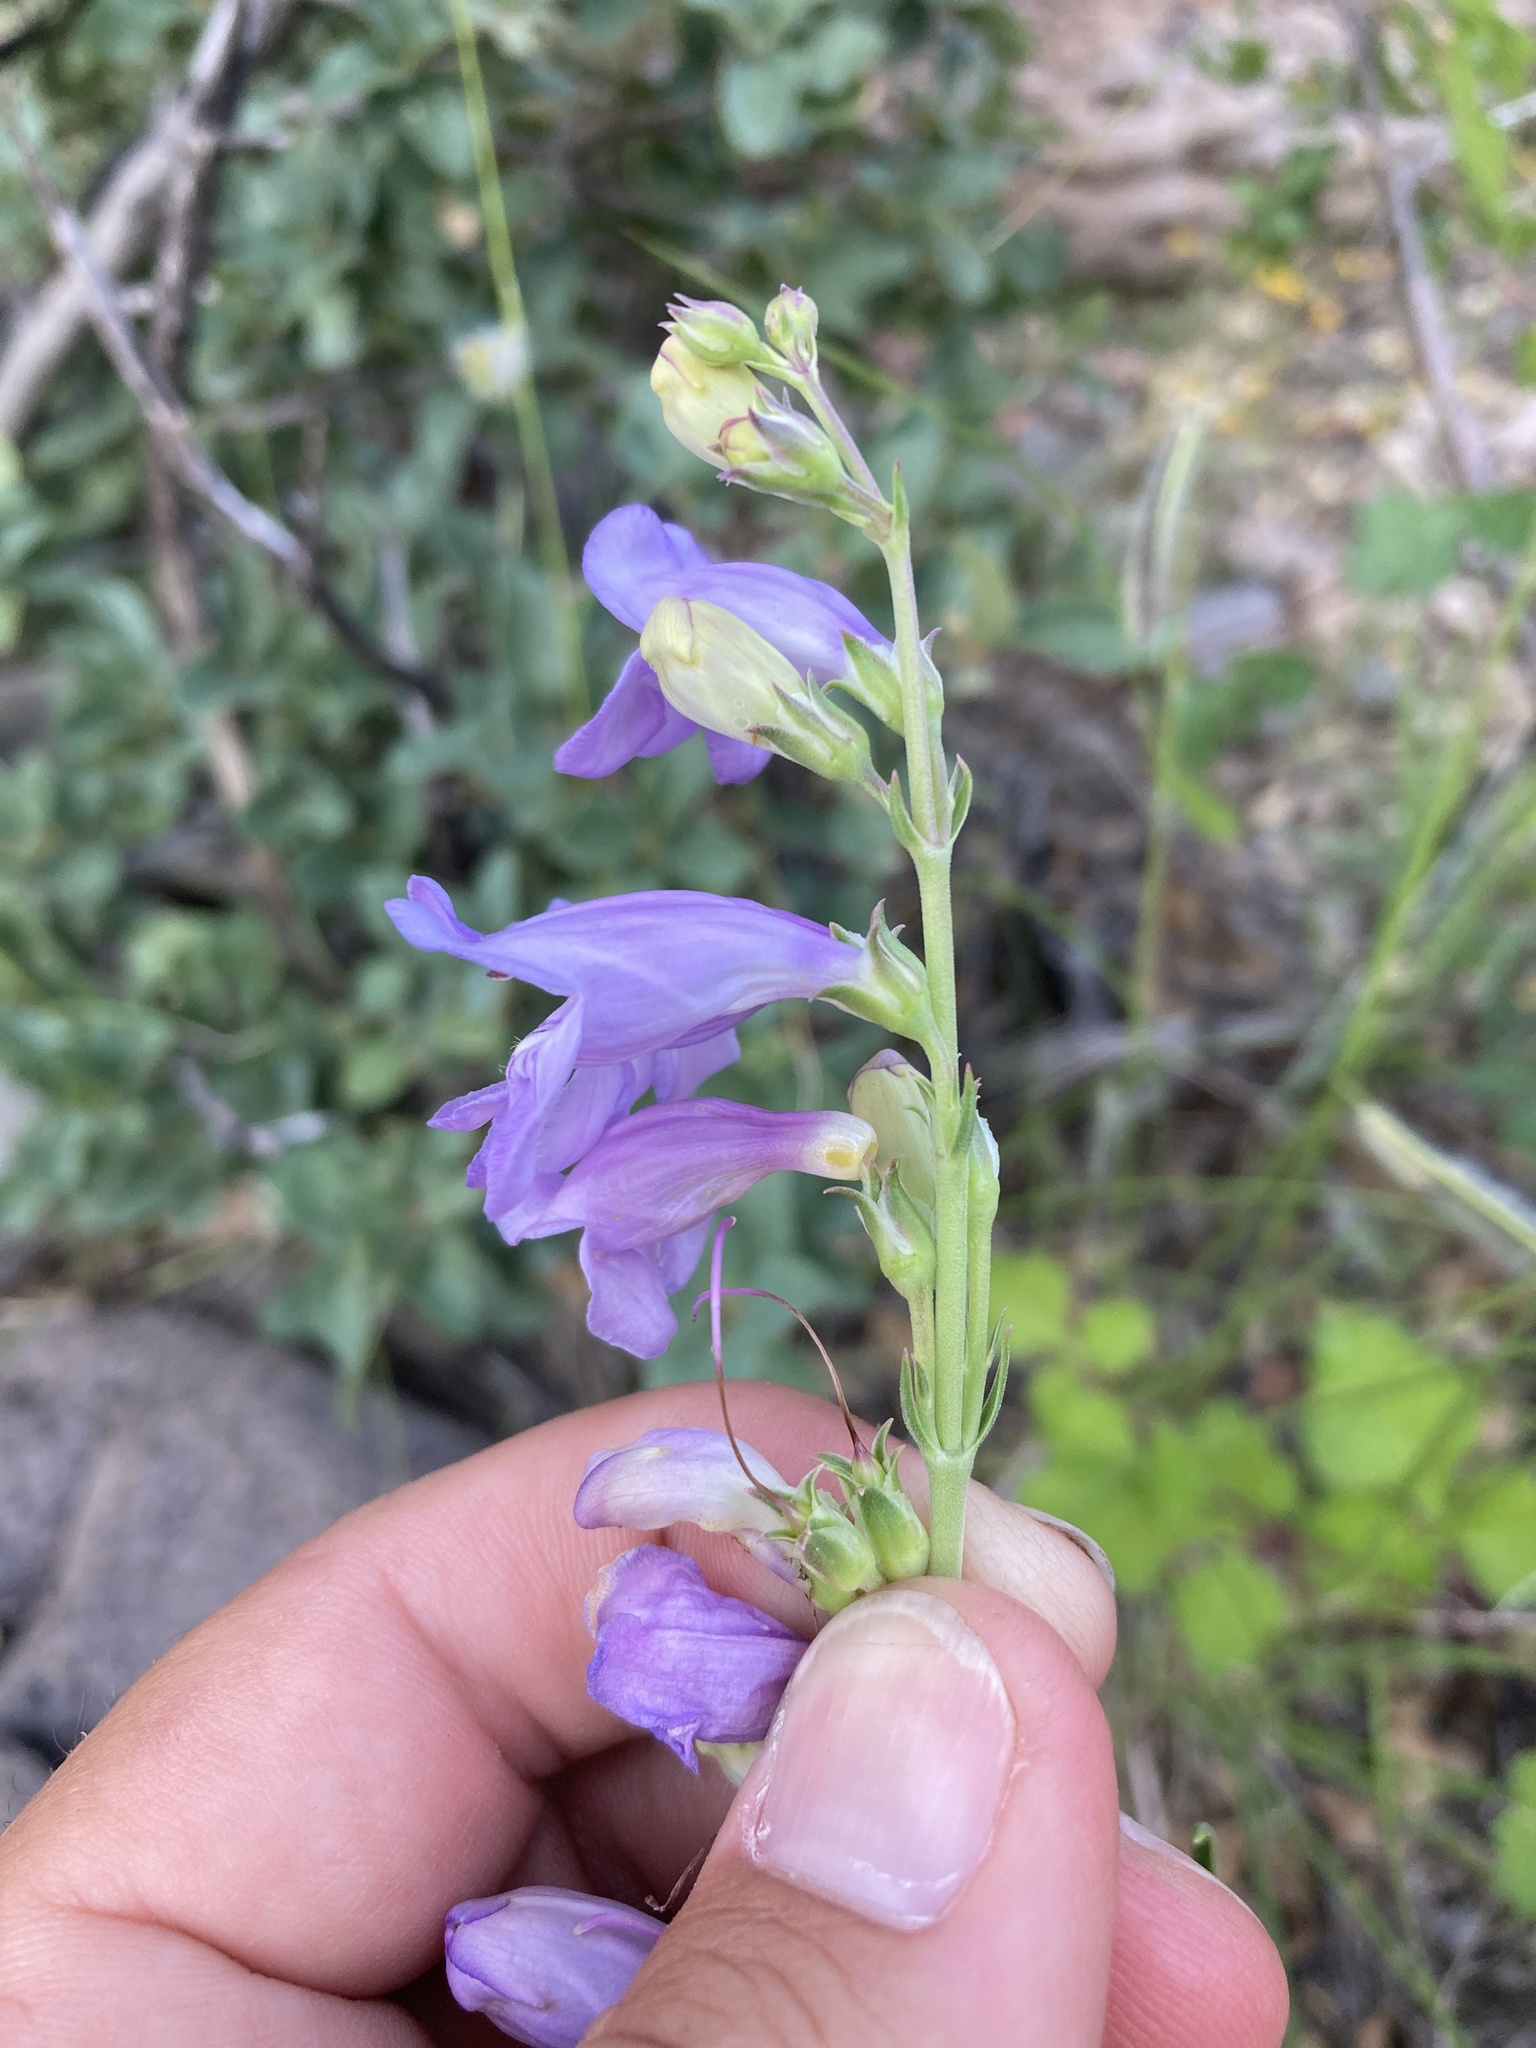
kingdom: Plantae
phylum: Tracheophyta
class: Magnoliopsida
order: Lamiales
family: Plantaginaceae
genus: Penstemon
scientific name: Penstemon virgatus
